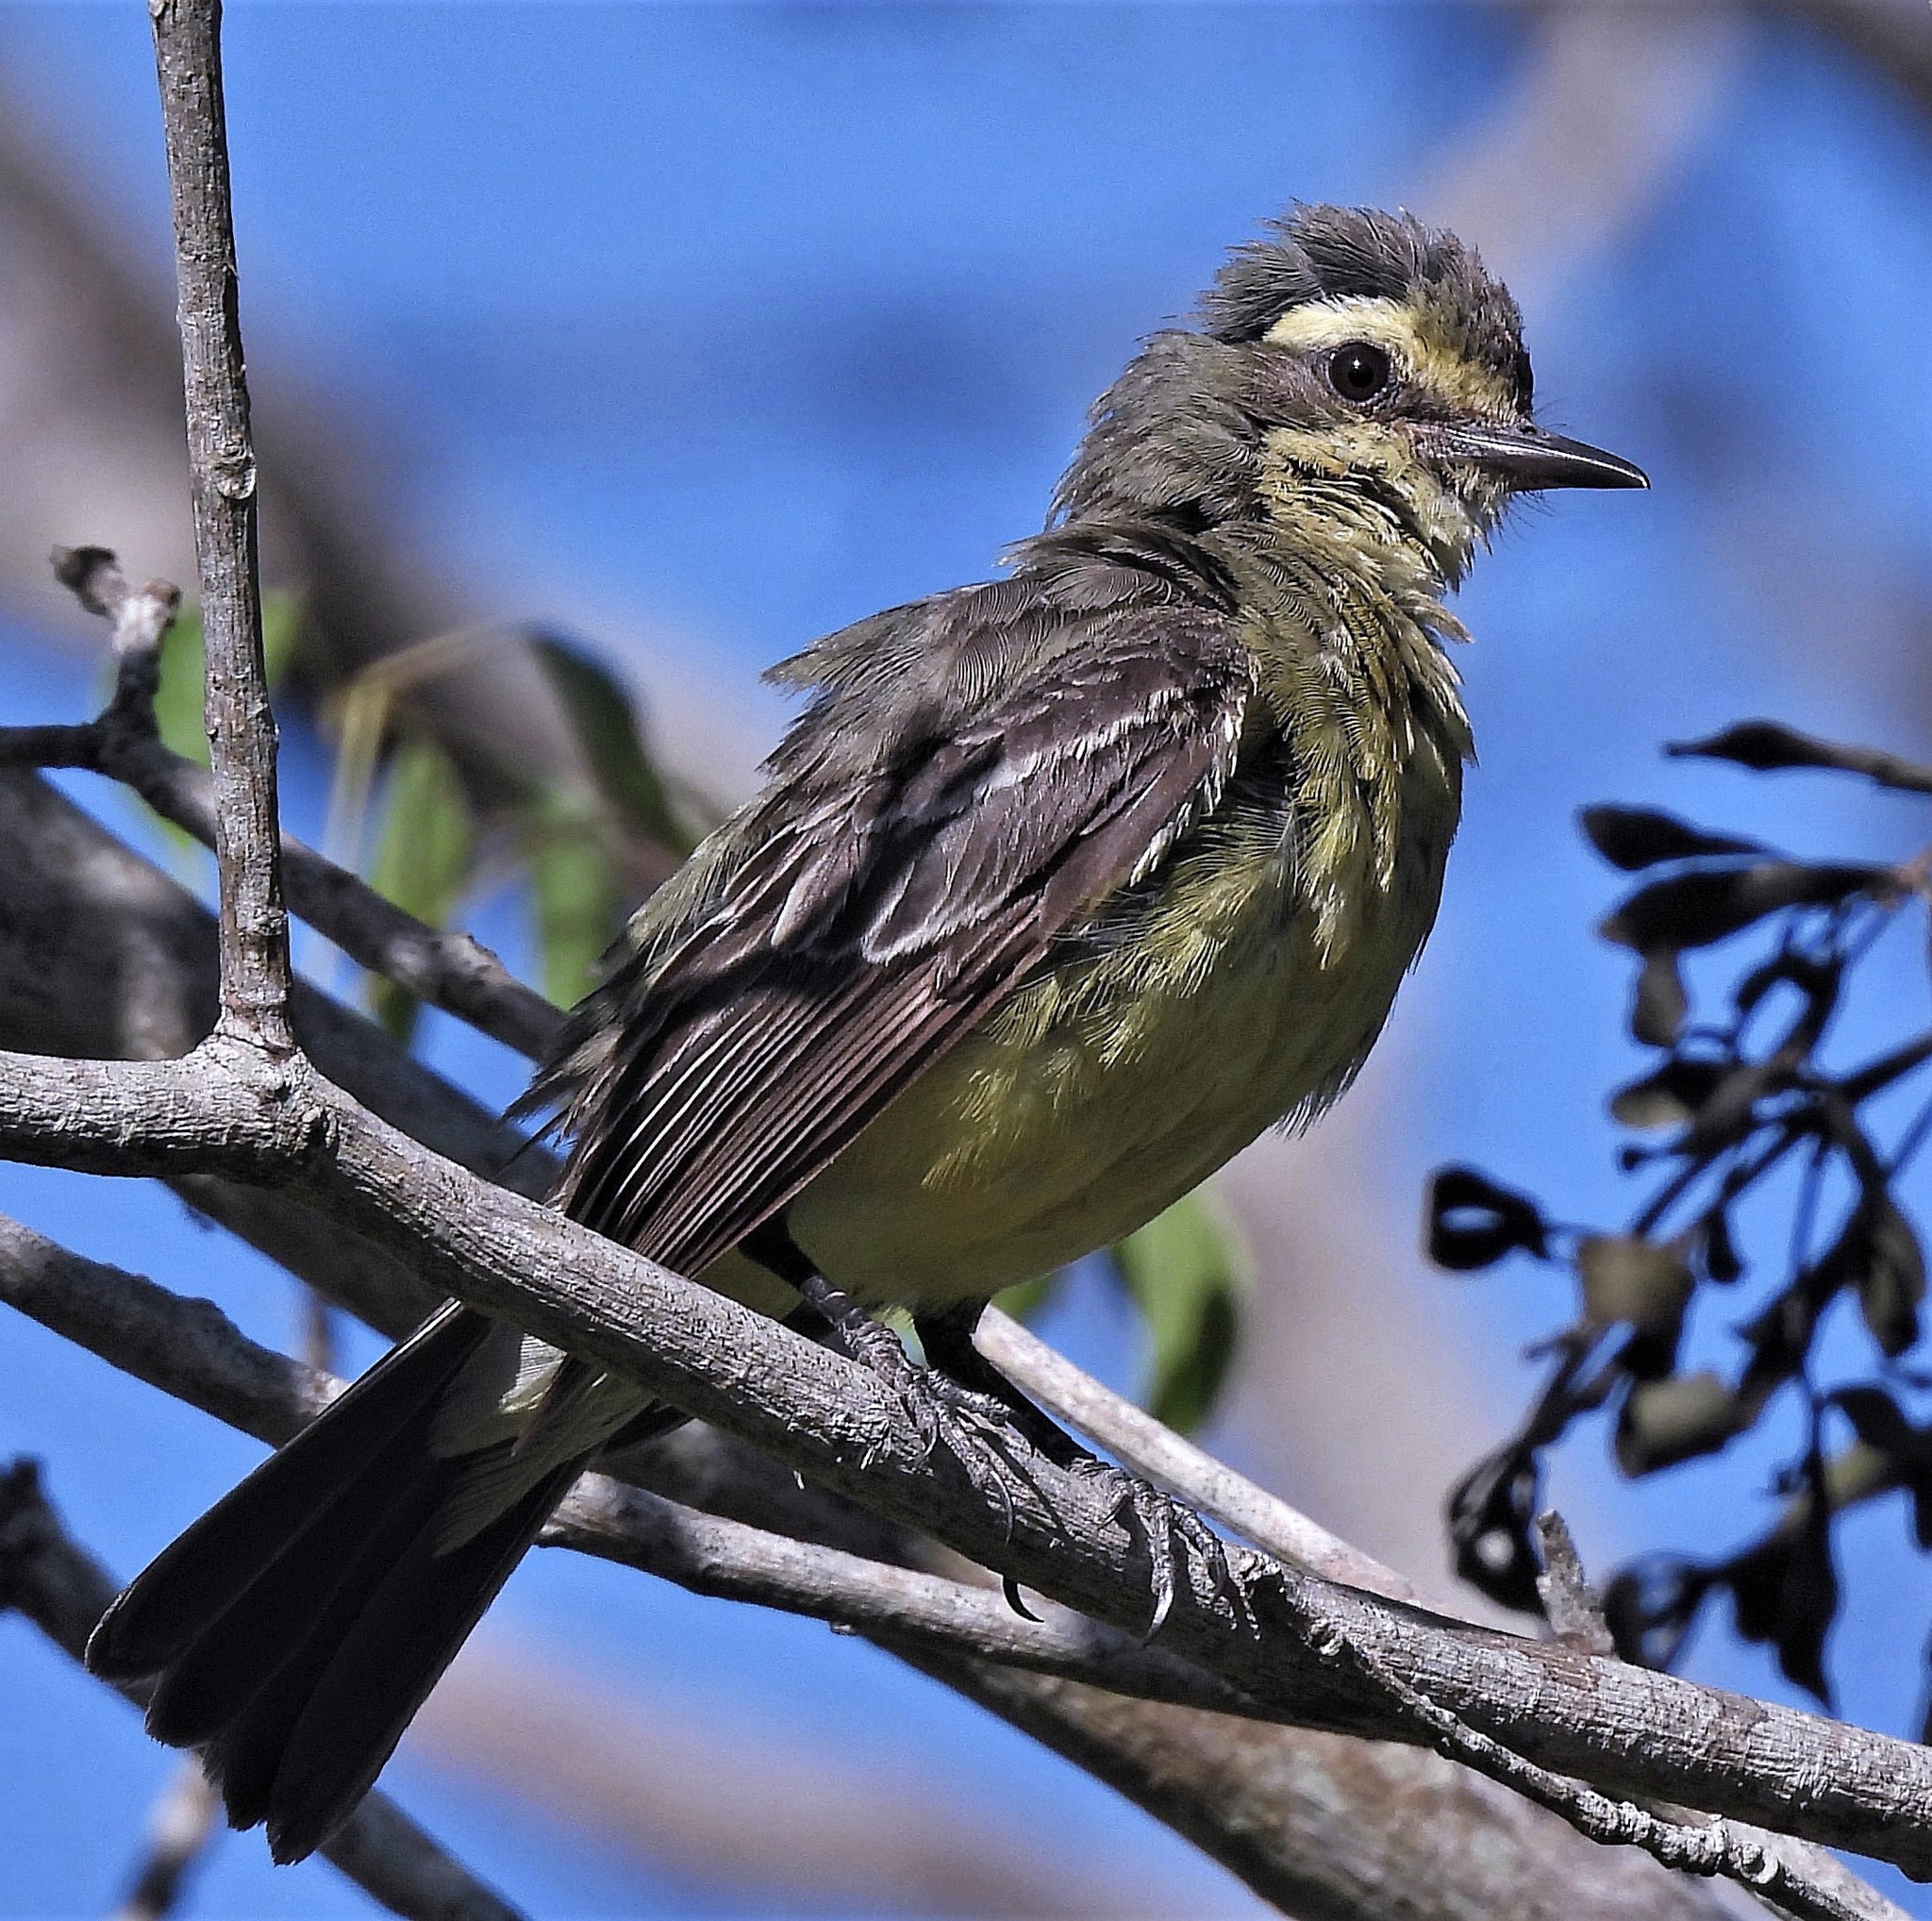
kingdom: Animalia
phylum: Chordata
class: Aves
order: Passeriformes
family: Tyrannidae
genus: Satrapa
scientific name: Satrapa icterophrys
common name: Yellow-browed tyrant
